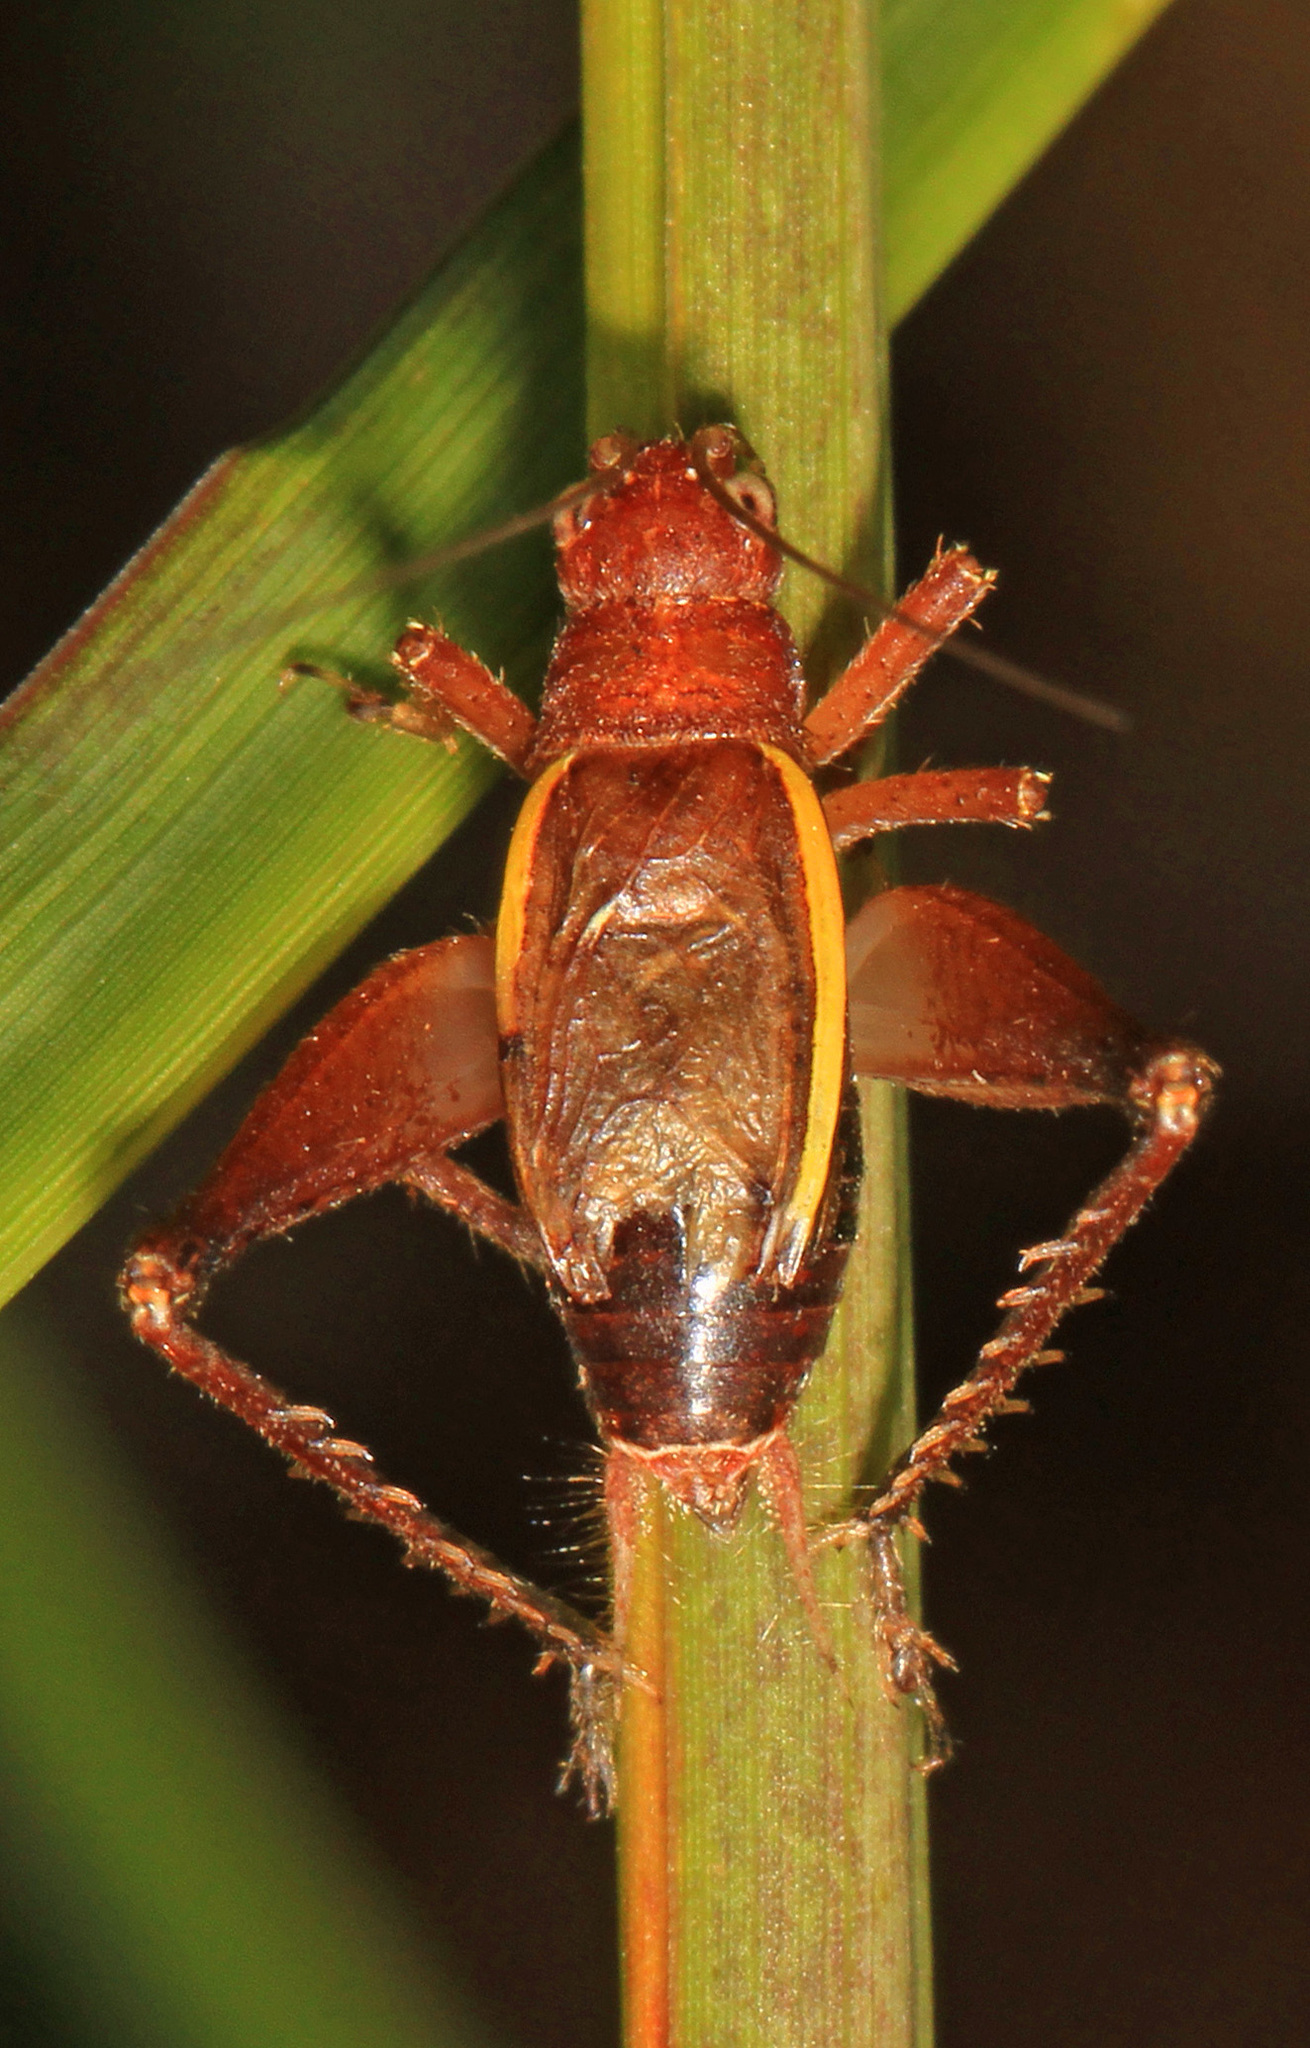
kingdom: Animalia
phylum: Arthropoda
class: Insecta
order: Orthoptera
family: Gryllidae
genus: Hapithus
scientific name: Hapithus agitator
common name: Restless bush cricket
